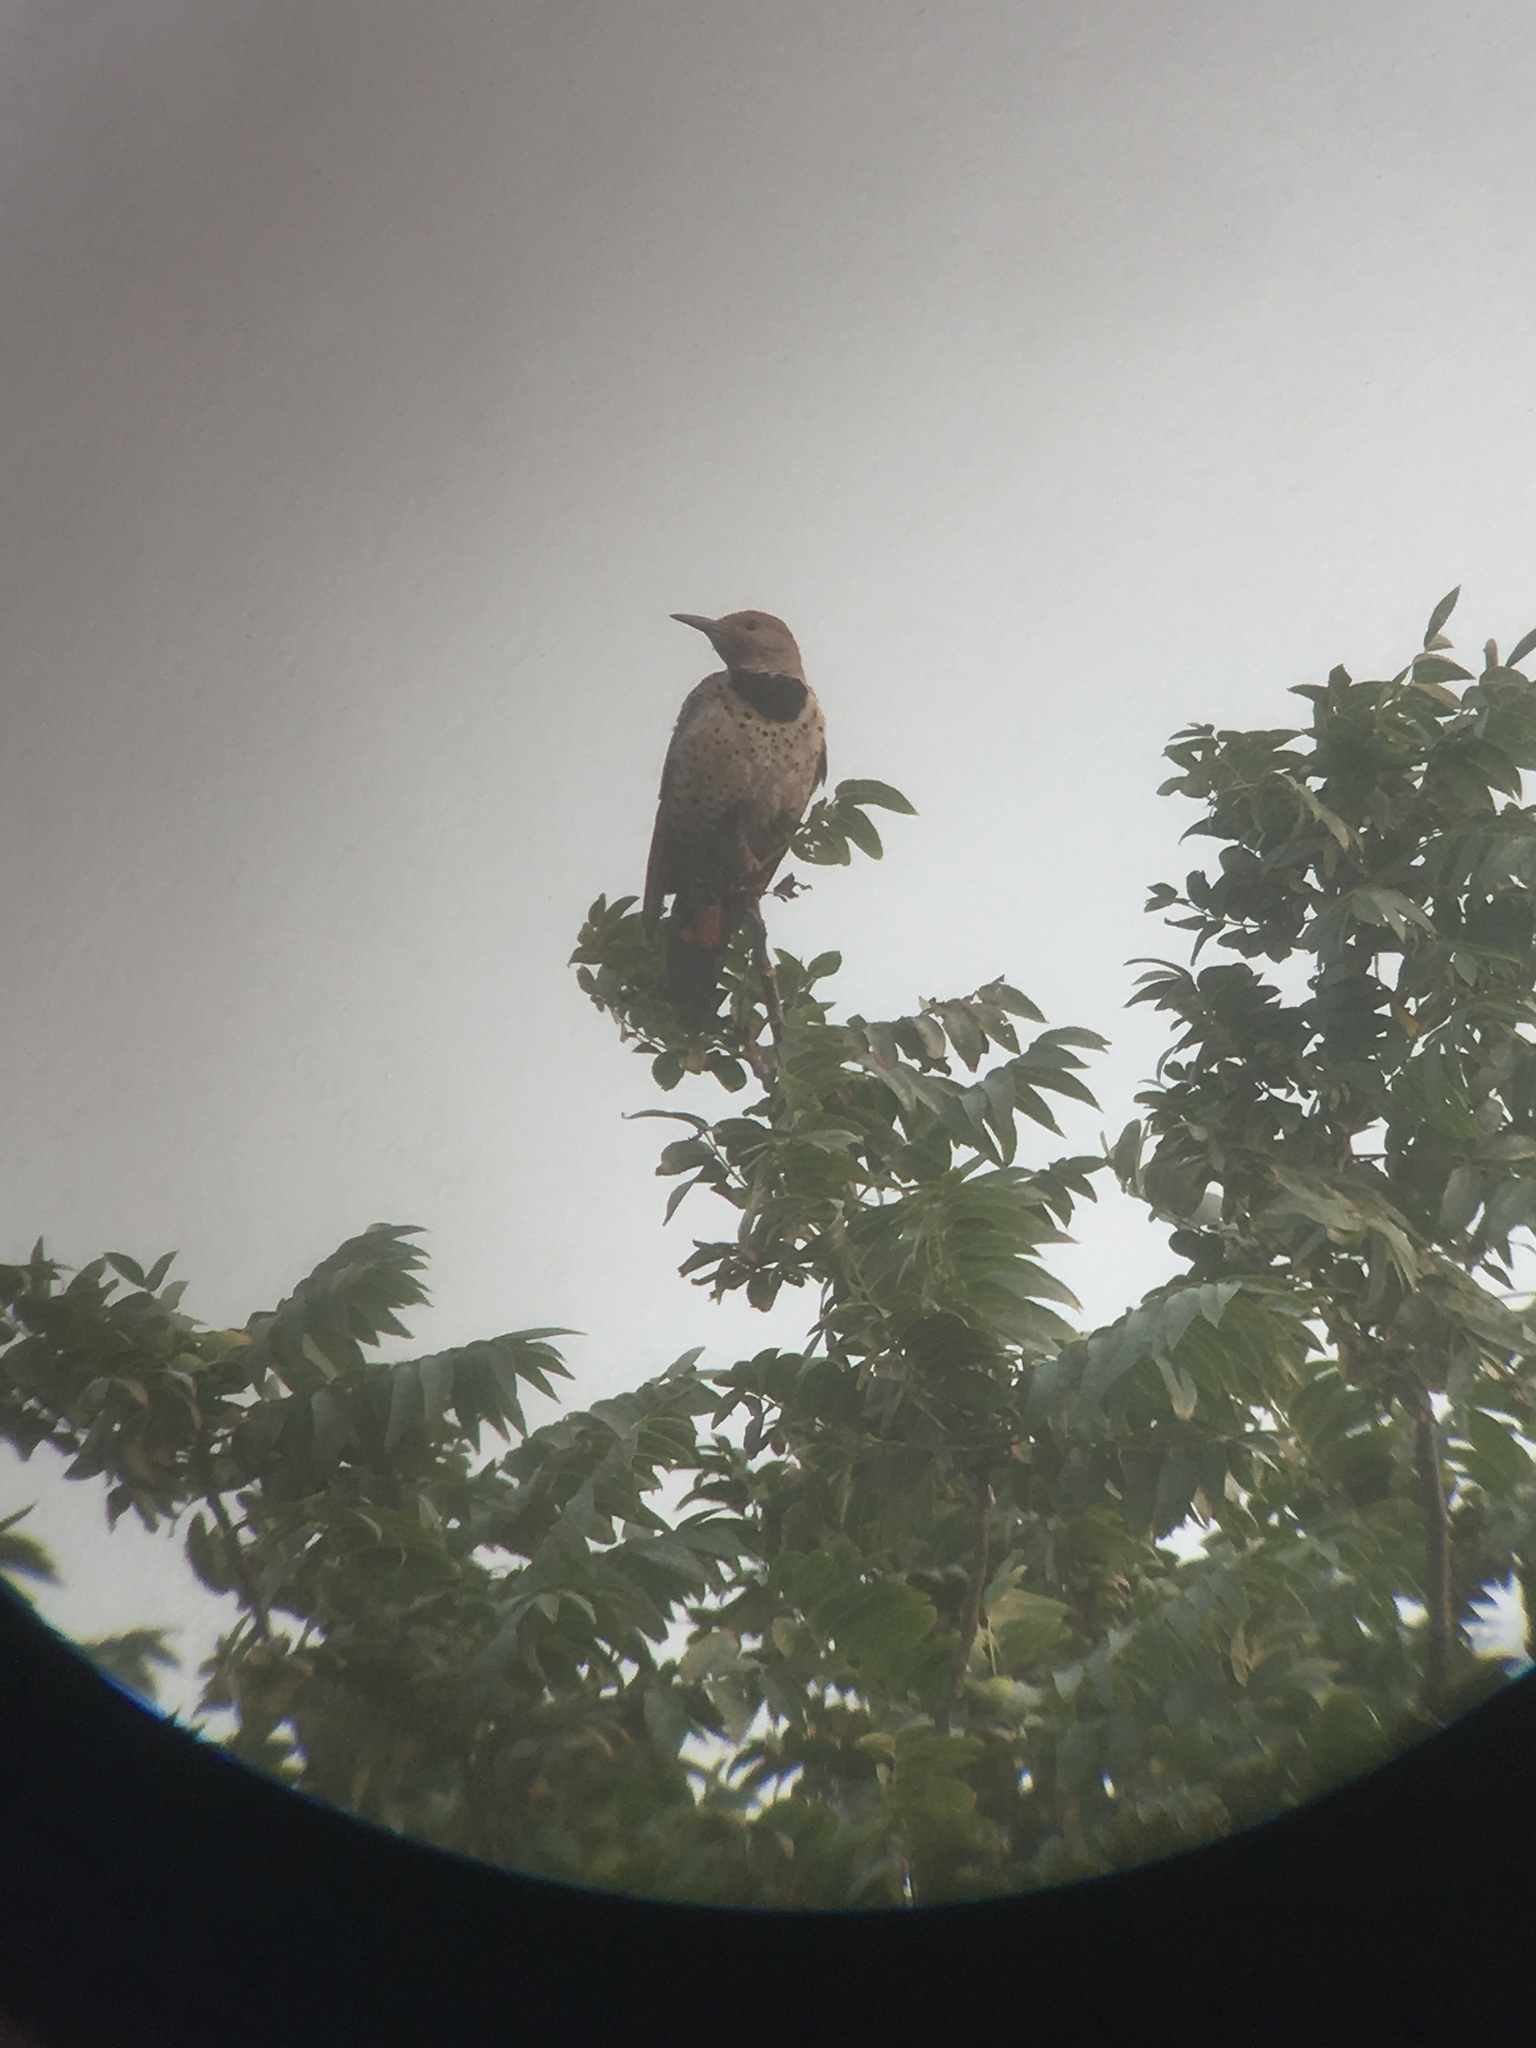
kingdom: Animalia
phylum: Chordata
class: Aves
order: Piciformes
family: Picidae
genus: Colaptes
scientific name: Colaptes auratus
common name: Northern flicker
